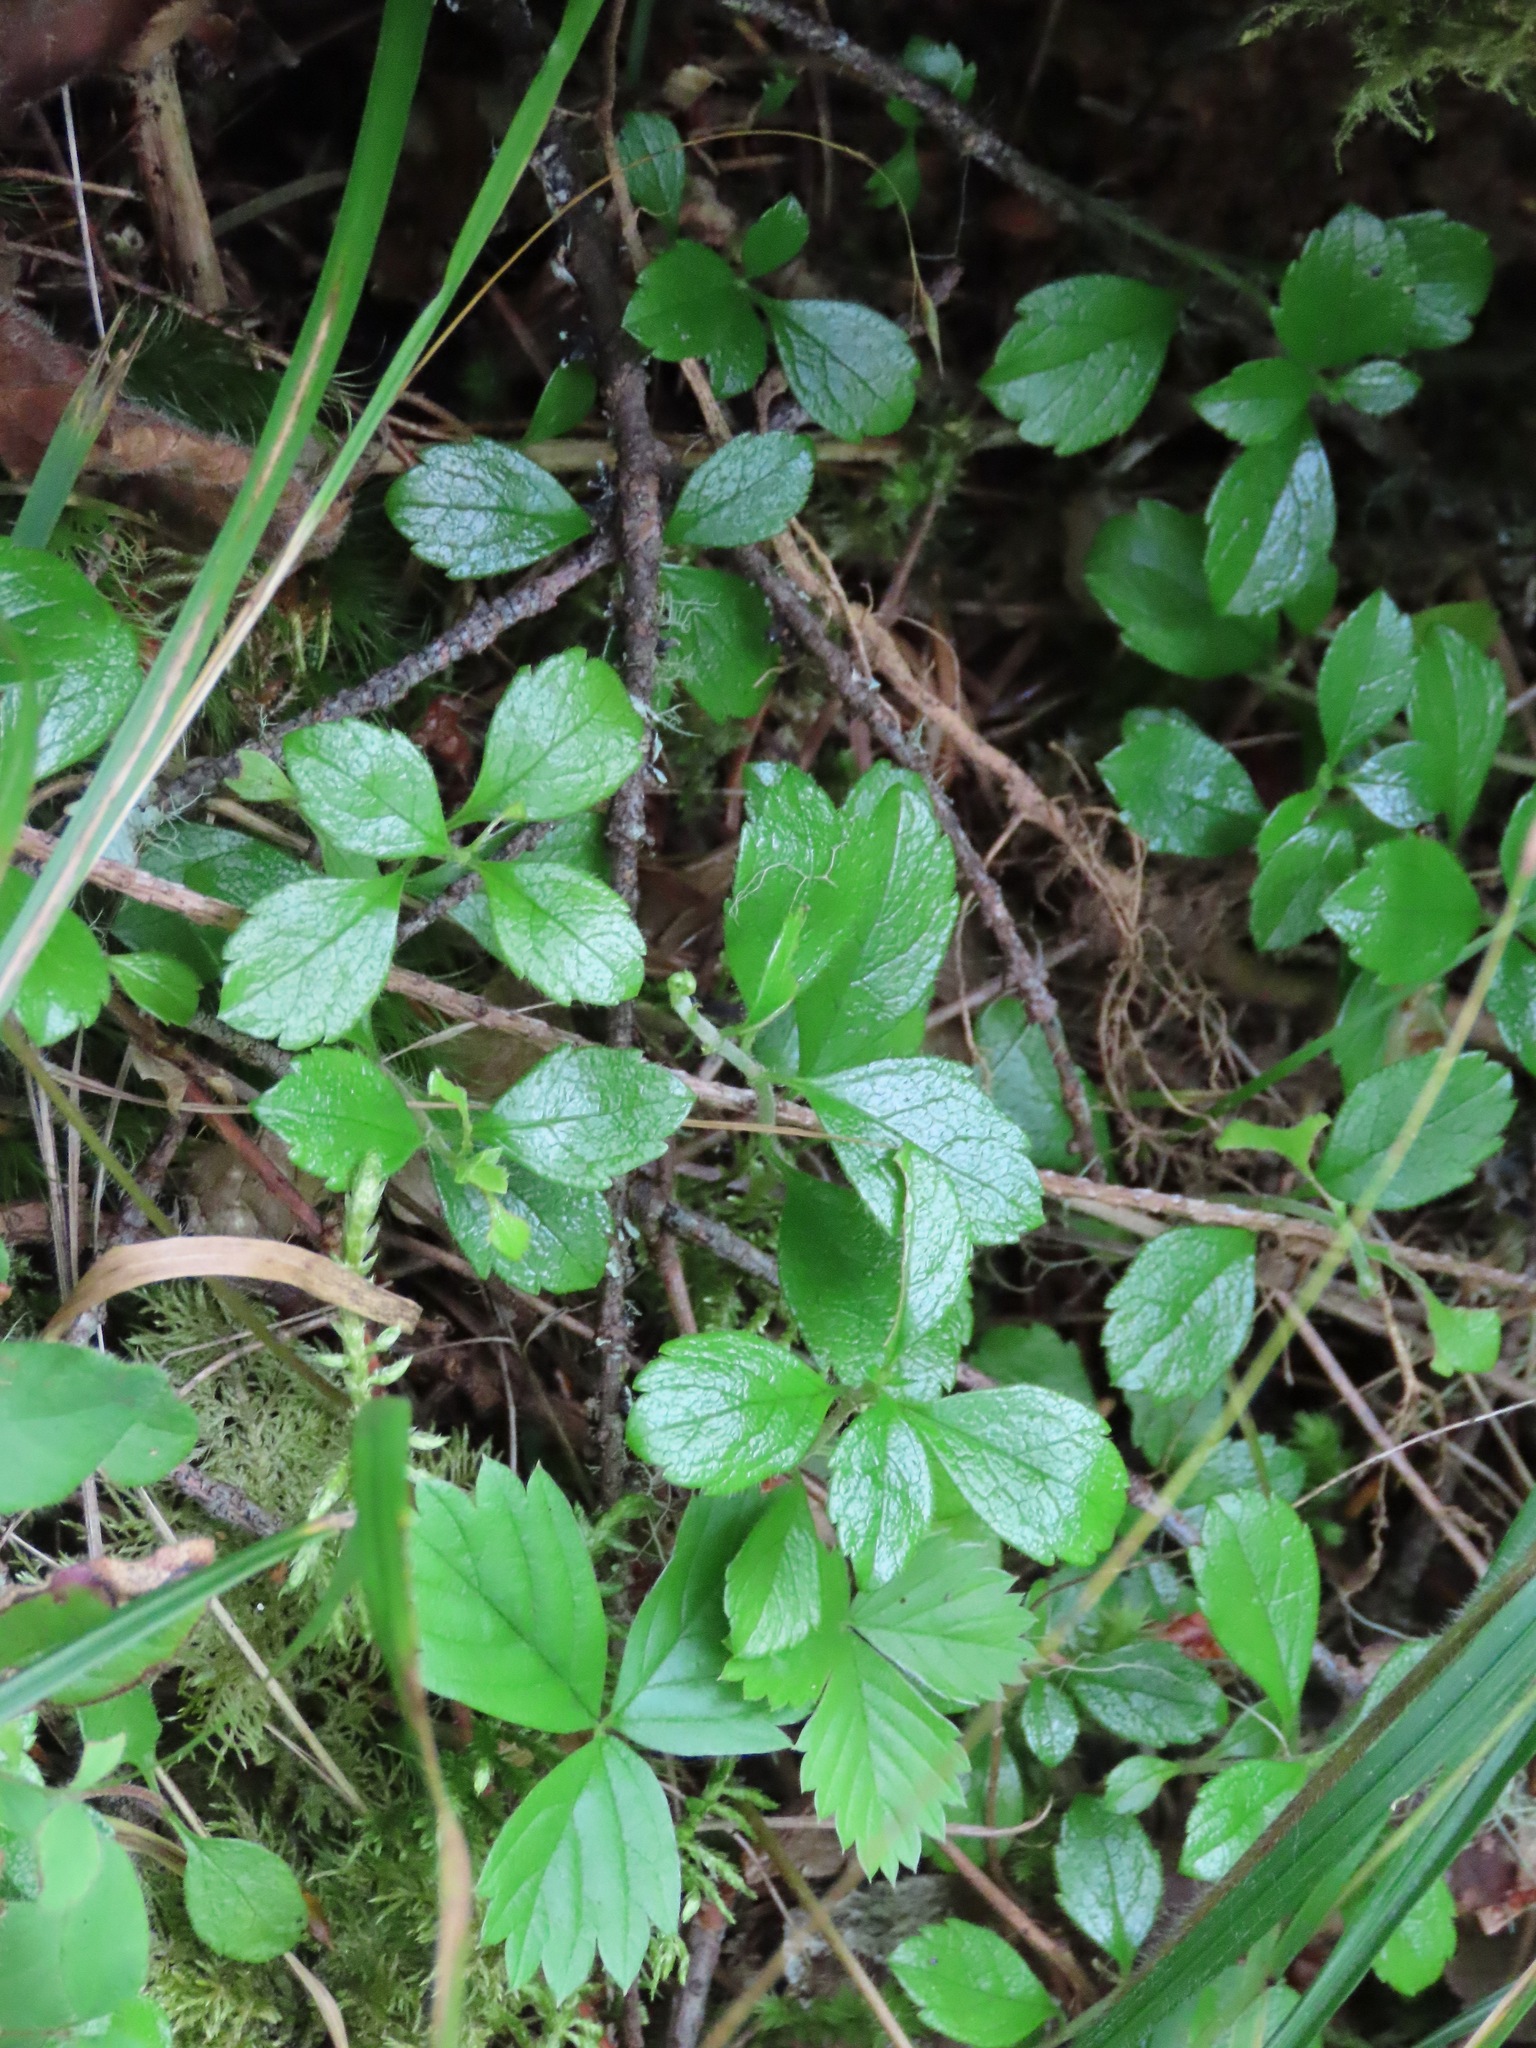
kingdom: Plantae
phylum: Tracheophyta
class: Magnoliopsida
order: Dipsacales
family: Caprifoliaceae
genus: Linnaea
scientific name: Linnaea borealis
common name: Twinflower
